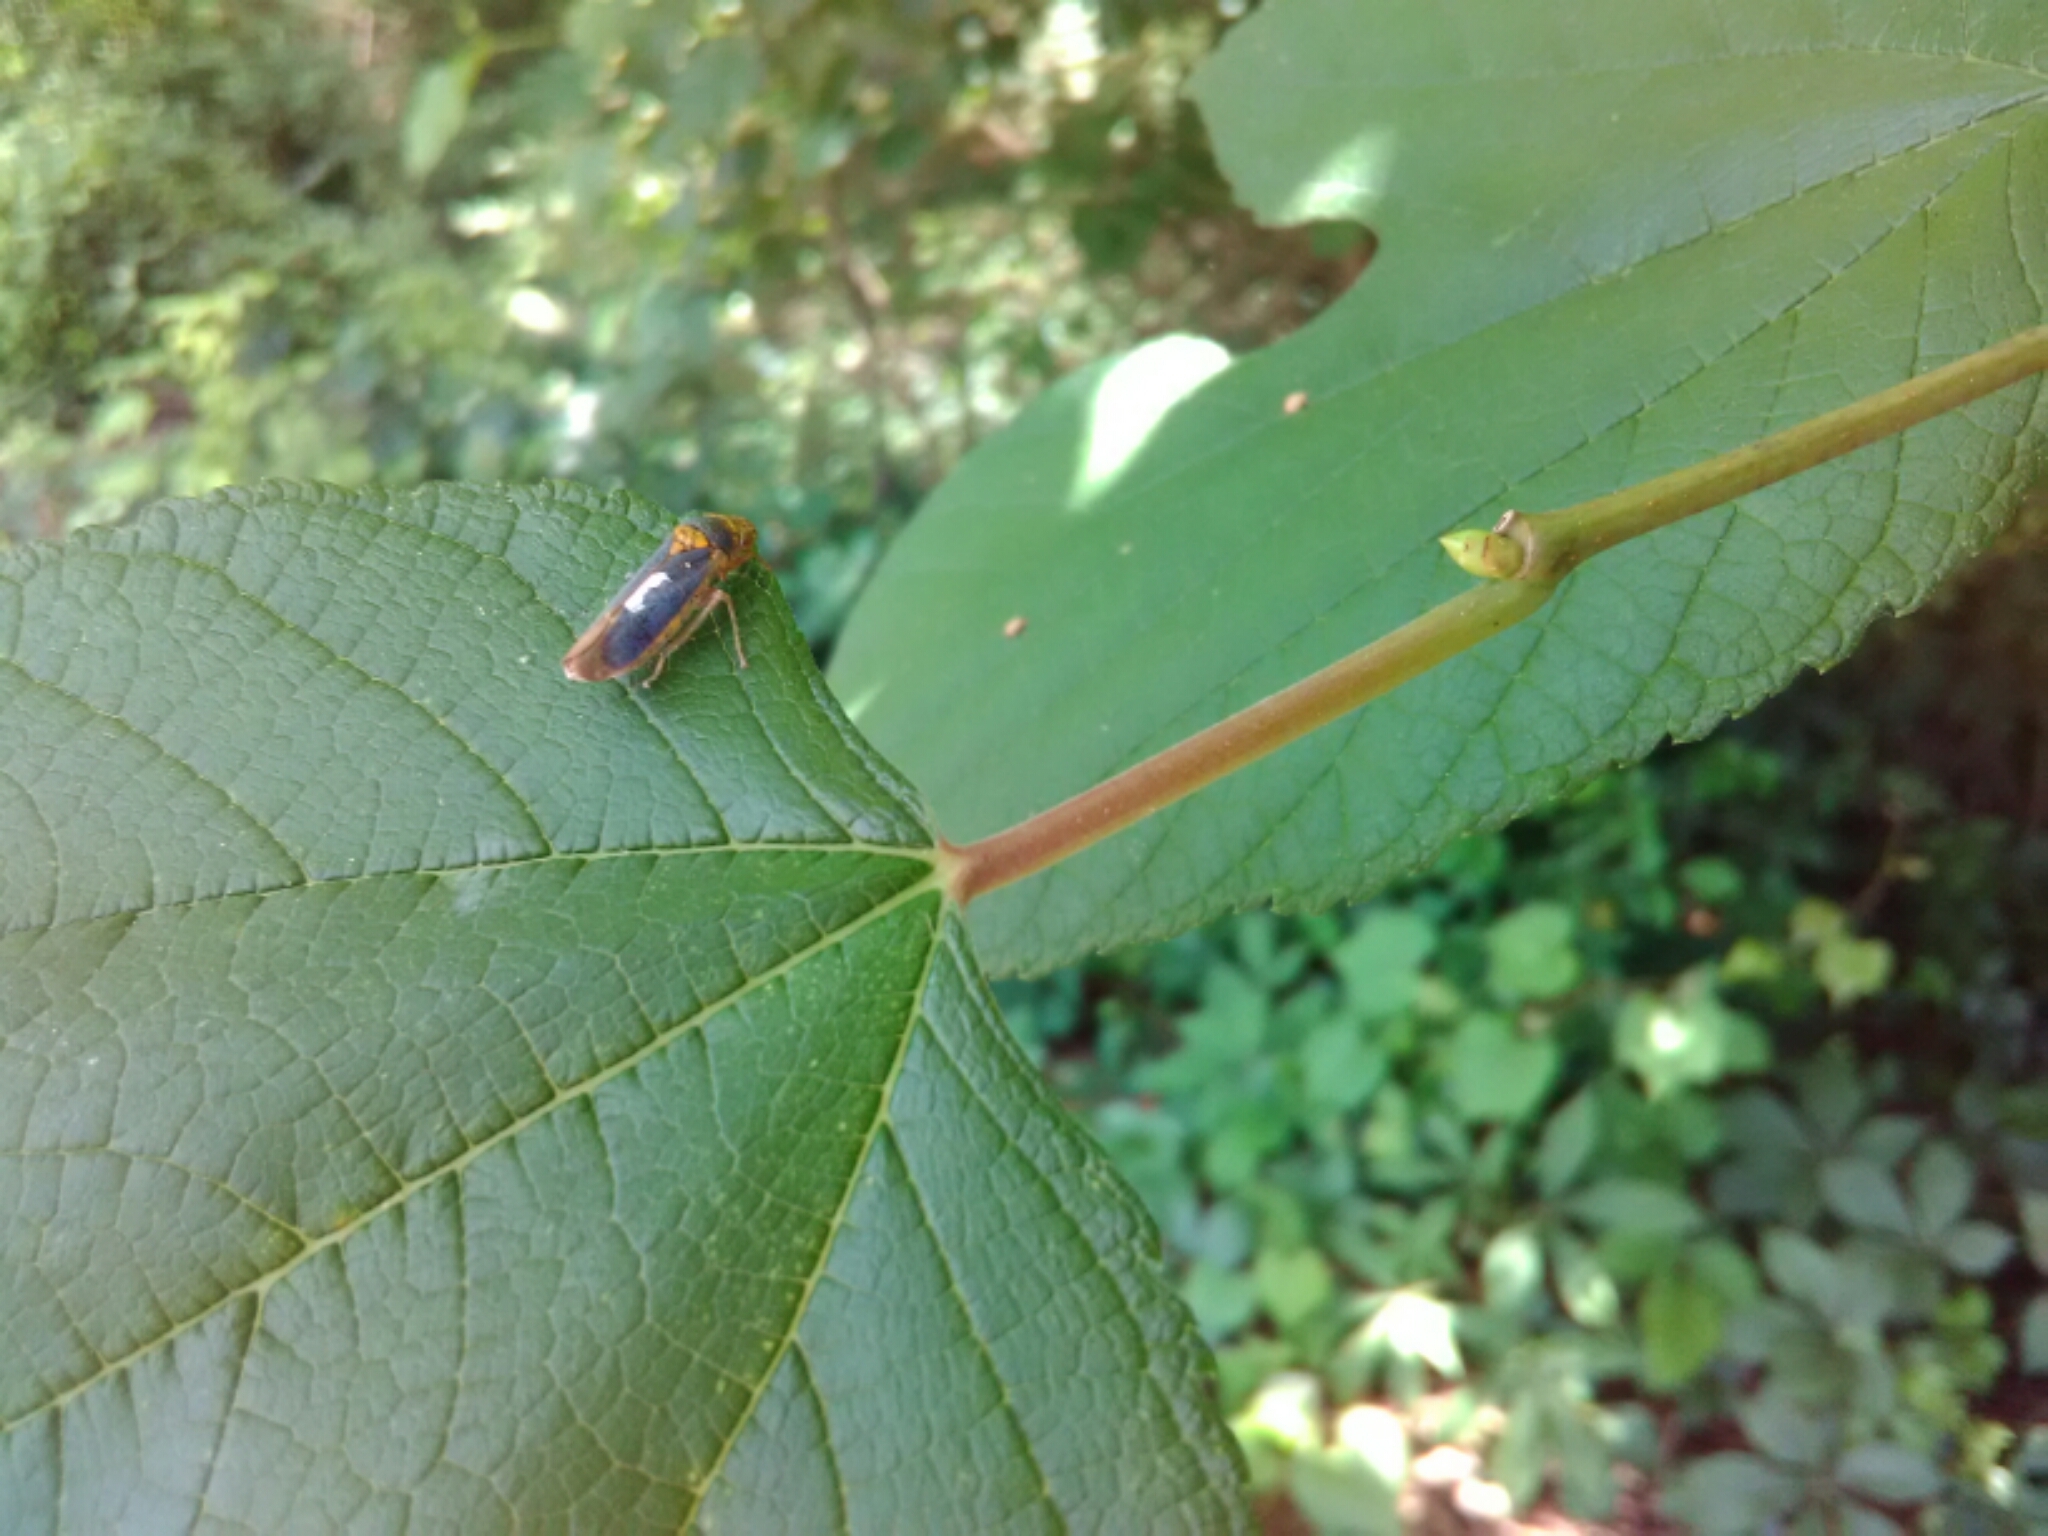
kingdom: Animalia
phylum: Arthropoda
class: Insecta
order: Hemiptera
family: Cicadellidae
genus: Oncometopia
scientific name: Oncometopia orbona
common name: Broad-headed sharpshooter
